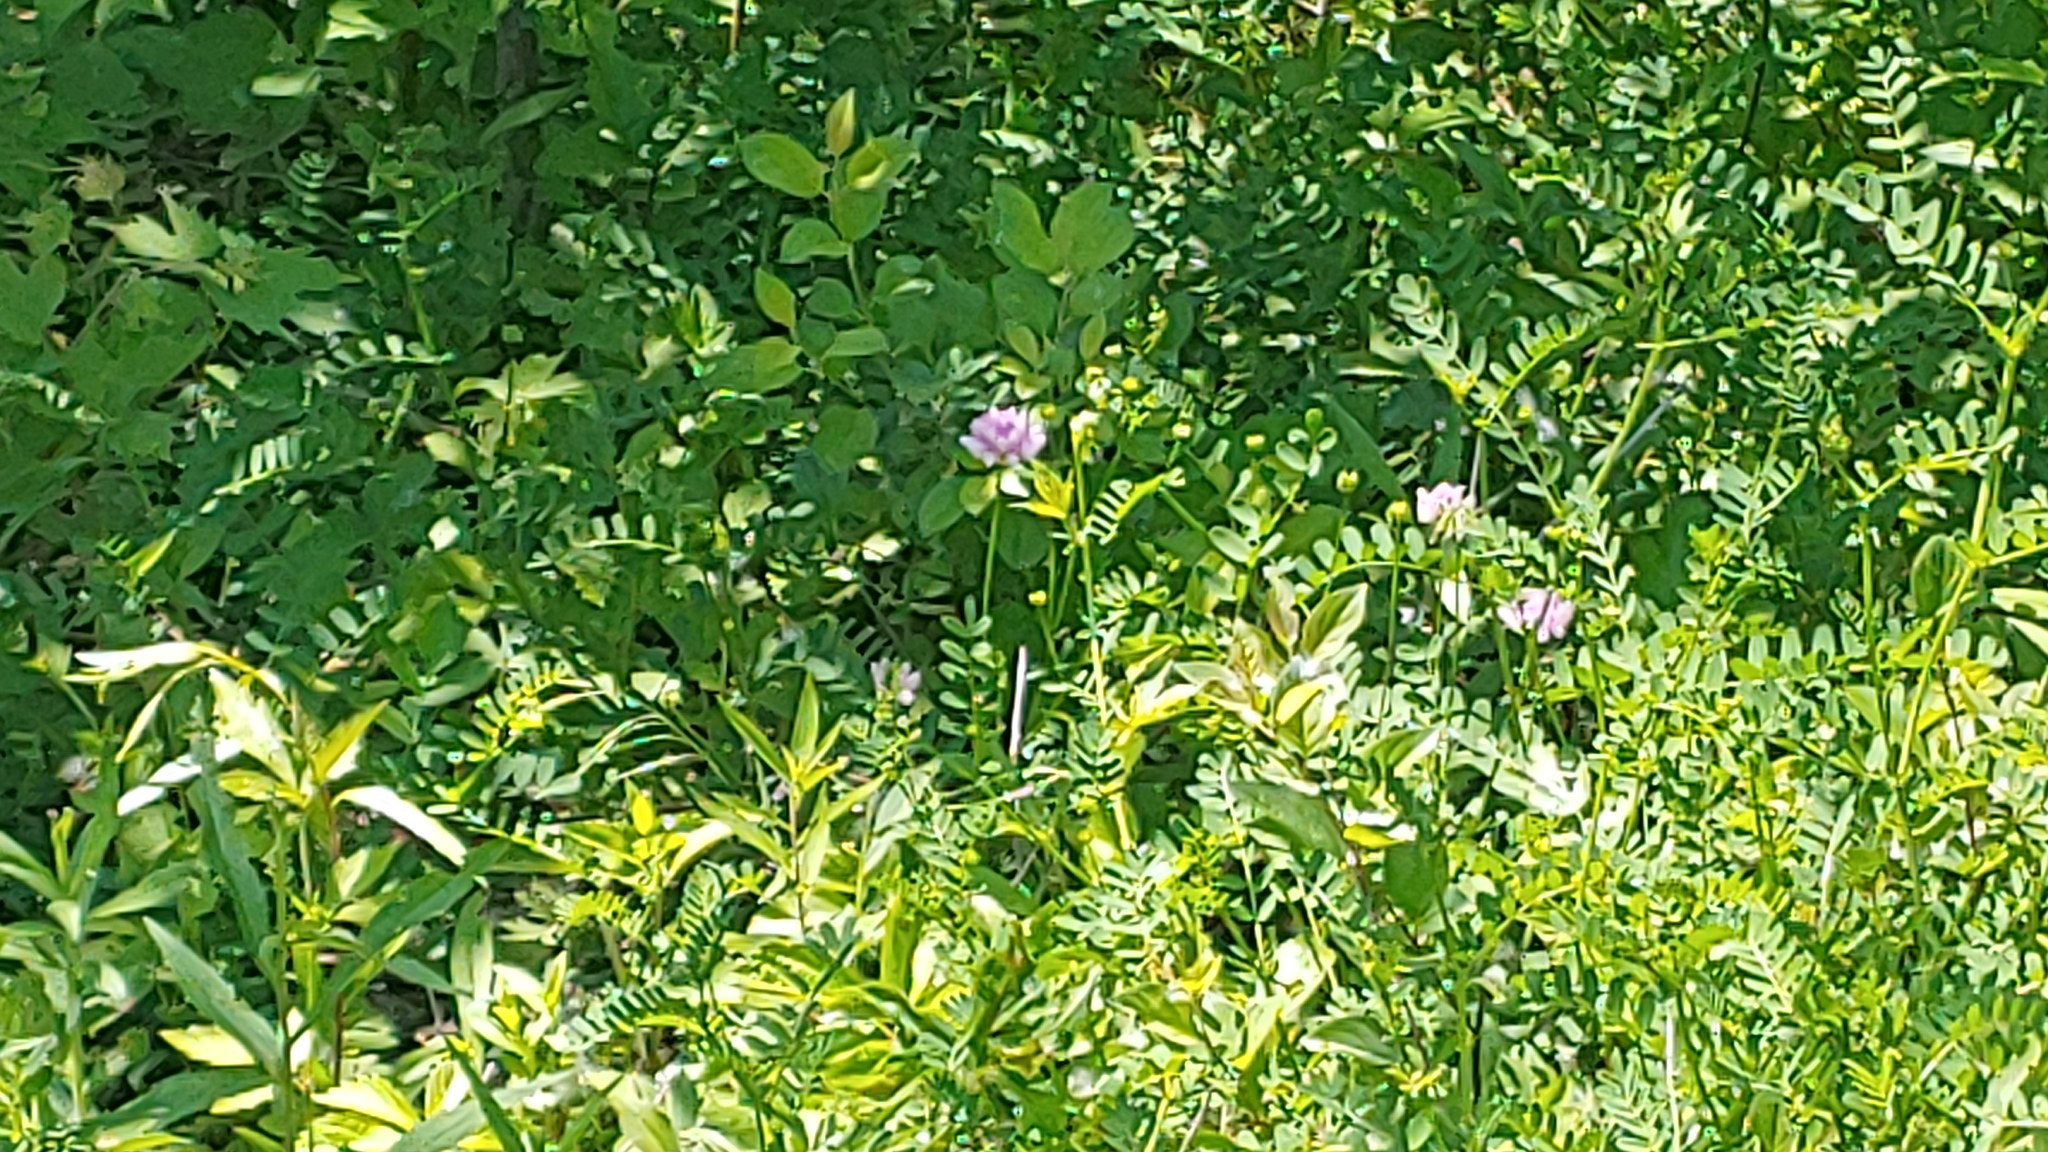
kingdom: Plantae
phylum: Tracheophyta
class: Magnoliopsida
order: Fabales
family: Fabaceae
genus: Coronilla
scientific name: Coronilla varia
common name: Crownvetch
